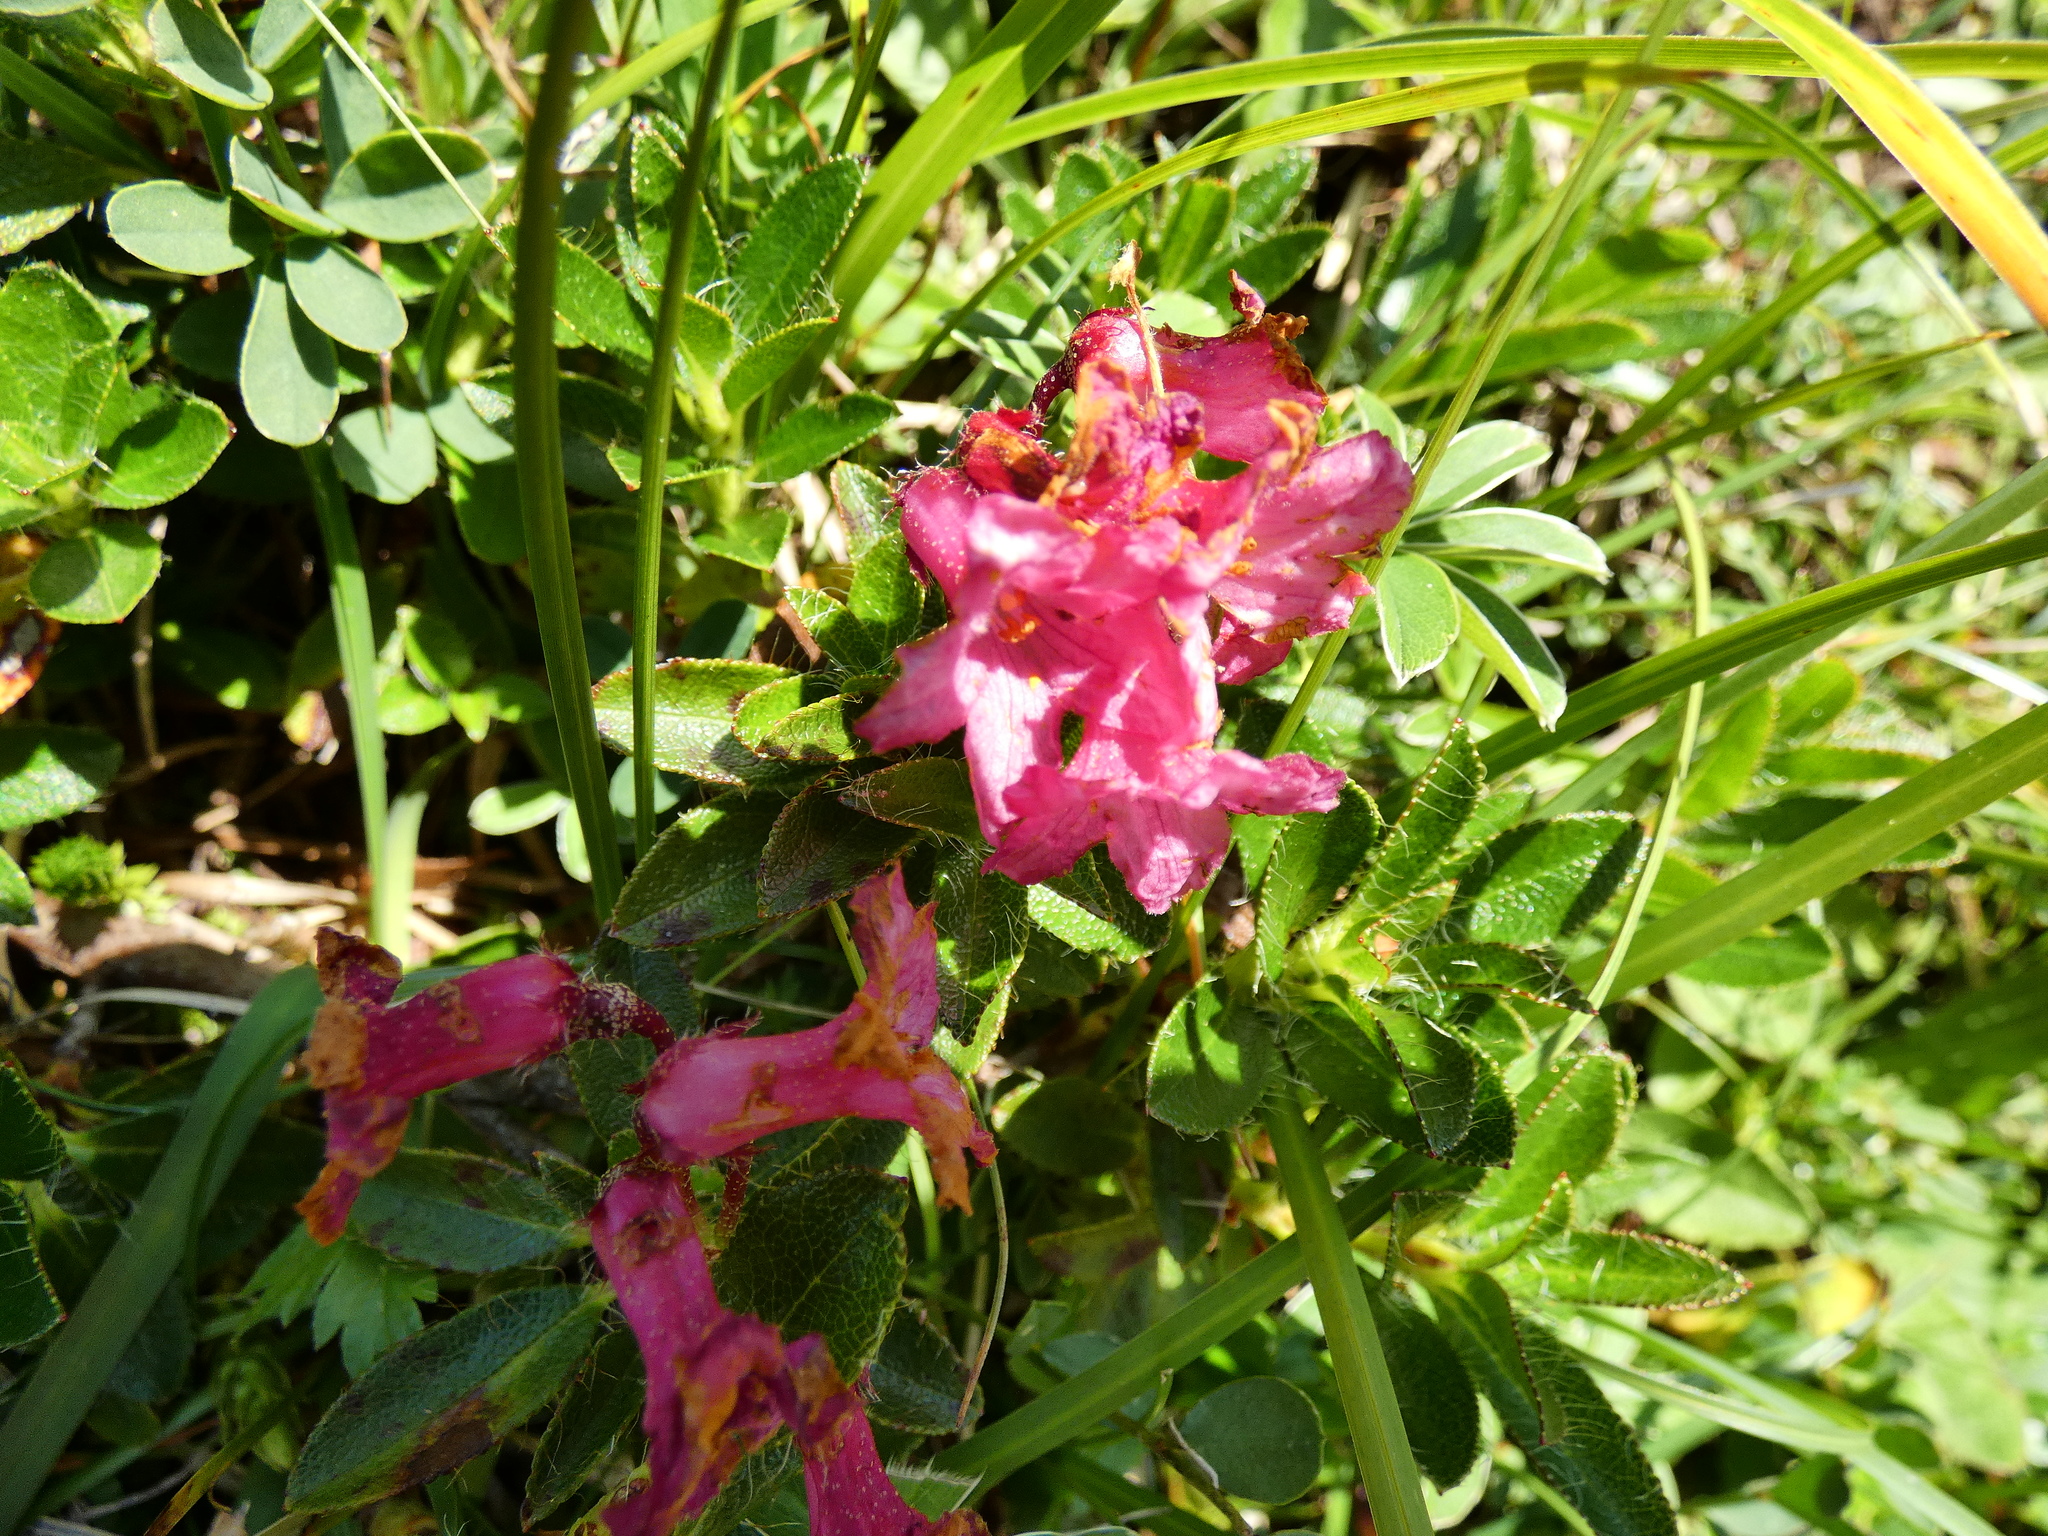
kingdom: Plantae
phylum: Tracheophyta
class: Magnoliopsida
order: Ericales
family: Ericaceae
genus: Rhododendron
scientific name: Rhododendron hirsutum
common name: Hairy alpenrose
